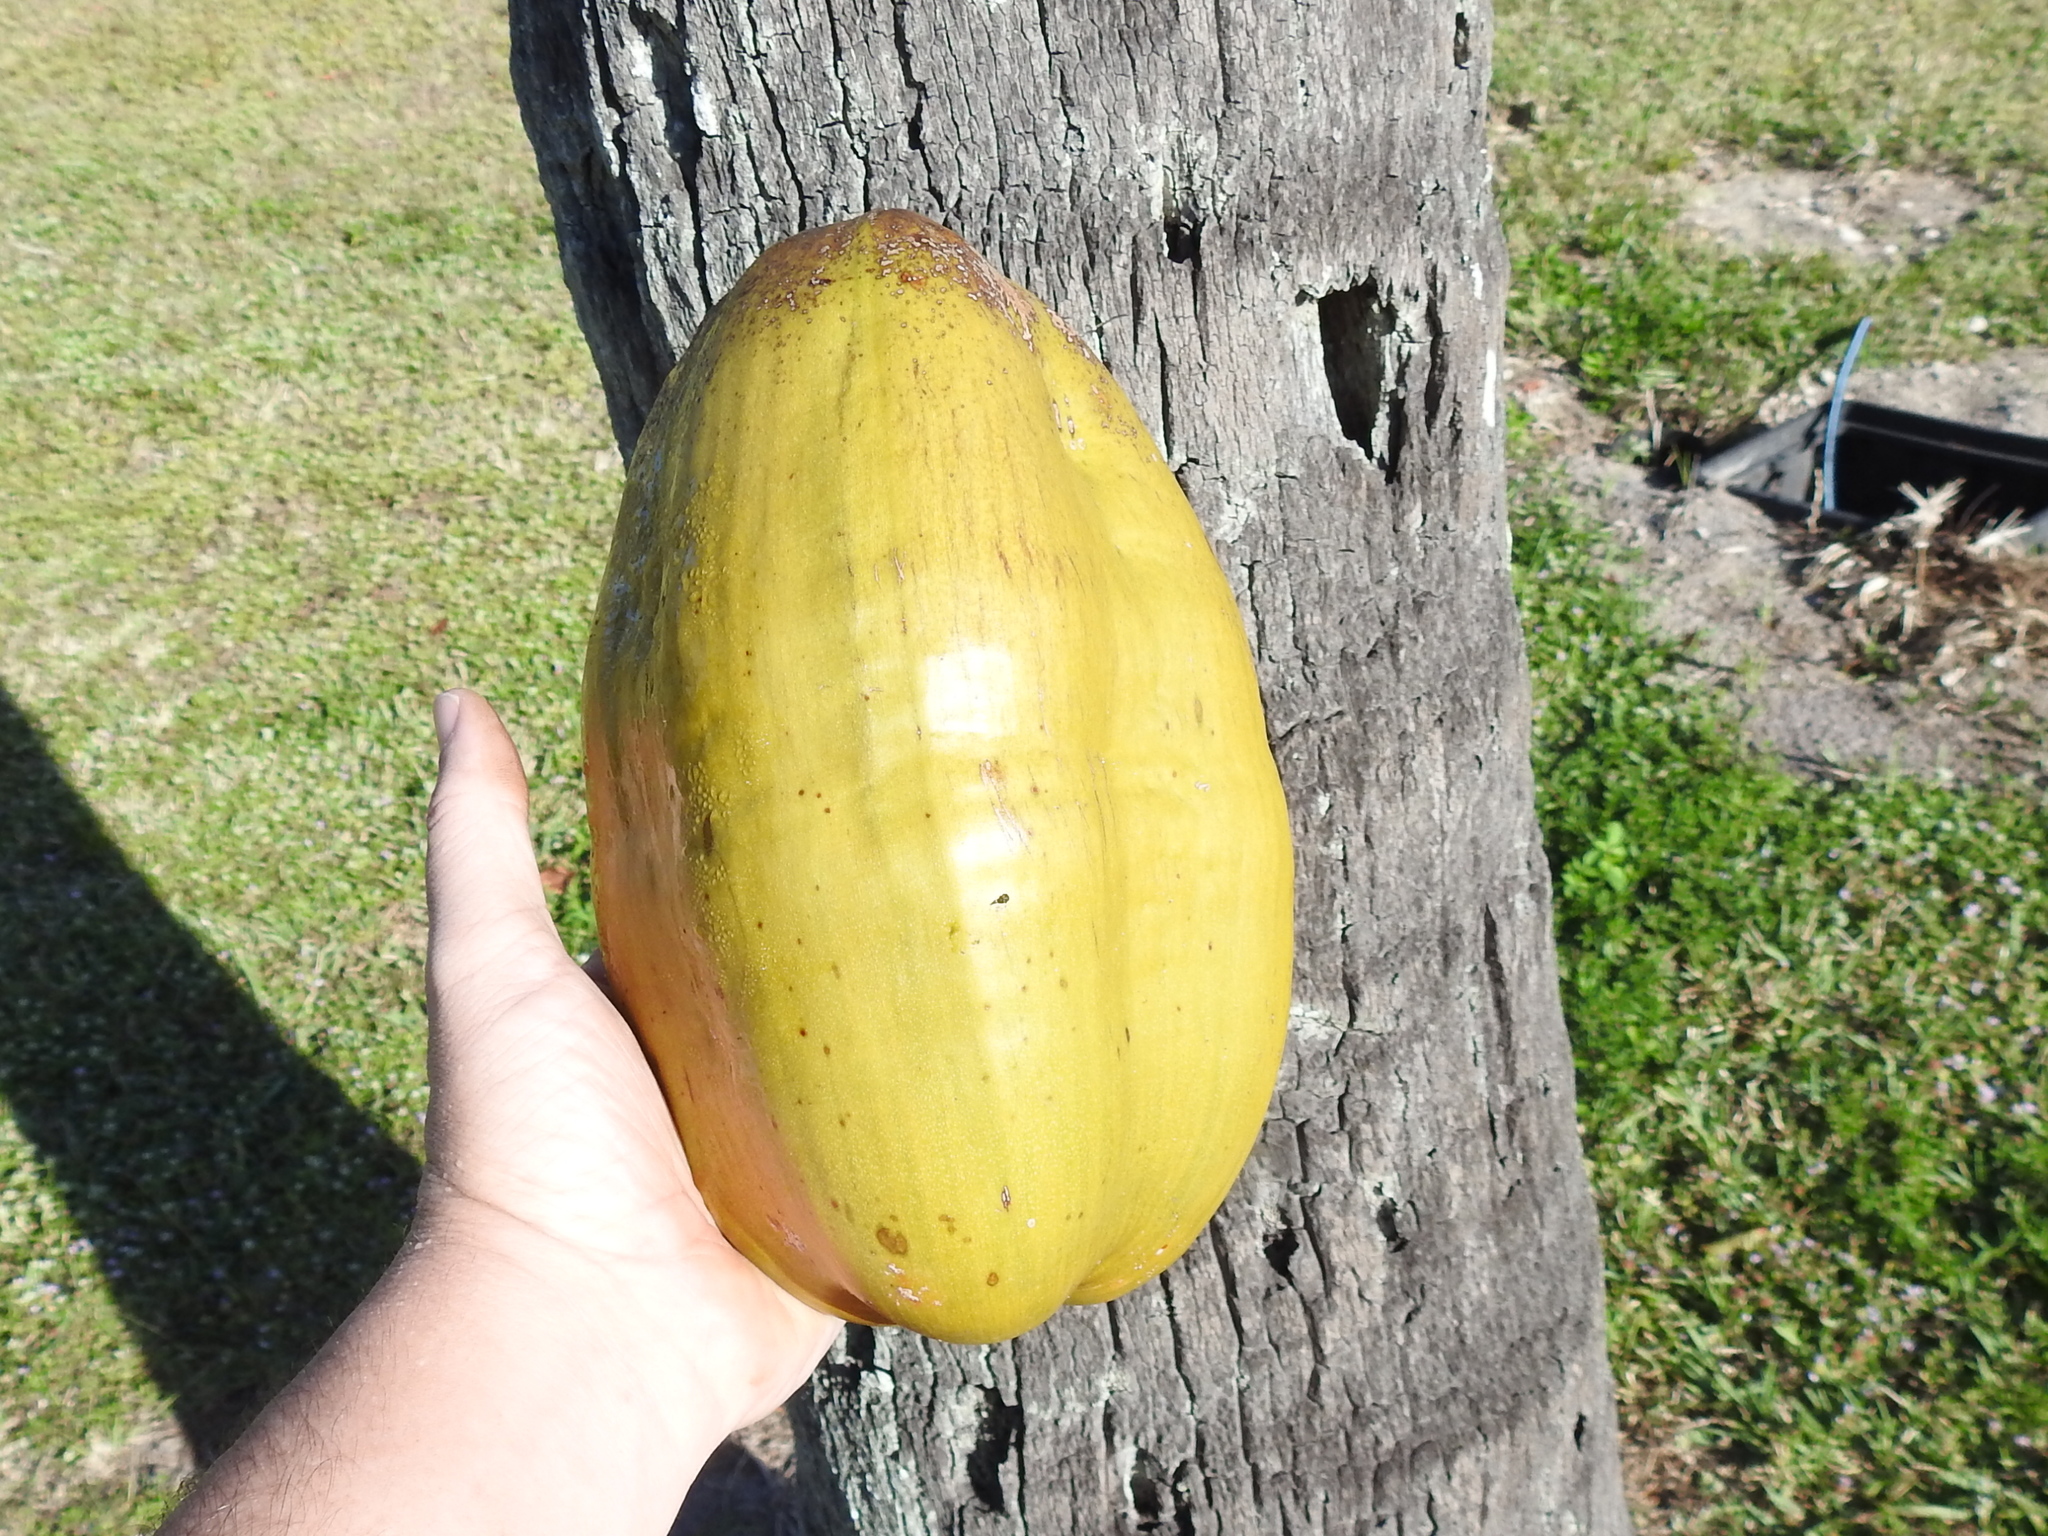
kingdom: Plantae
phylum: Tracheophyta
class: Liliopsida
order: Arecales
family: Arecaceae
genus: Cocos
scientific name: Cocos nucifera
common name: Coconut palm
